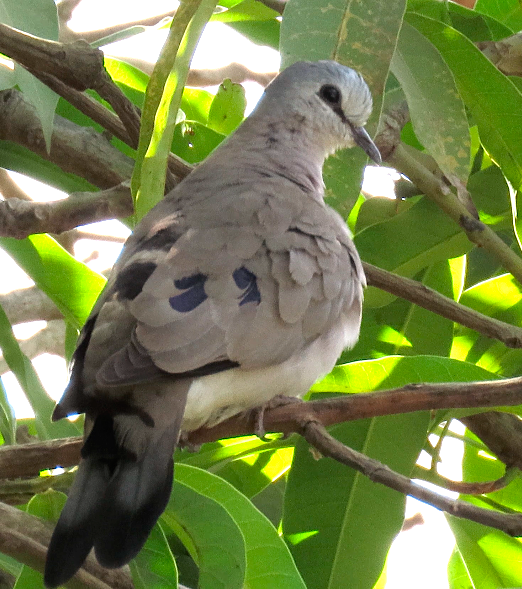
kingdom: Animalia
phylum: Chordata
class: Aves
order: Columbiformes
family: Columbidae
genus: Turtur
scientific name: Turtur abyssinicus
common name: Black-billed wood dove
